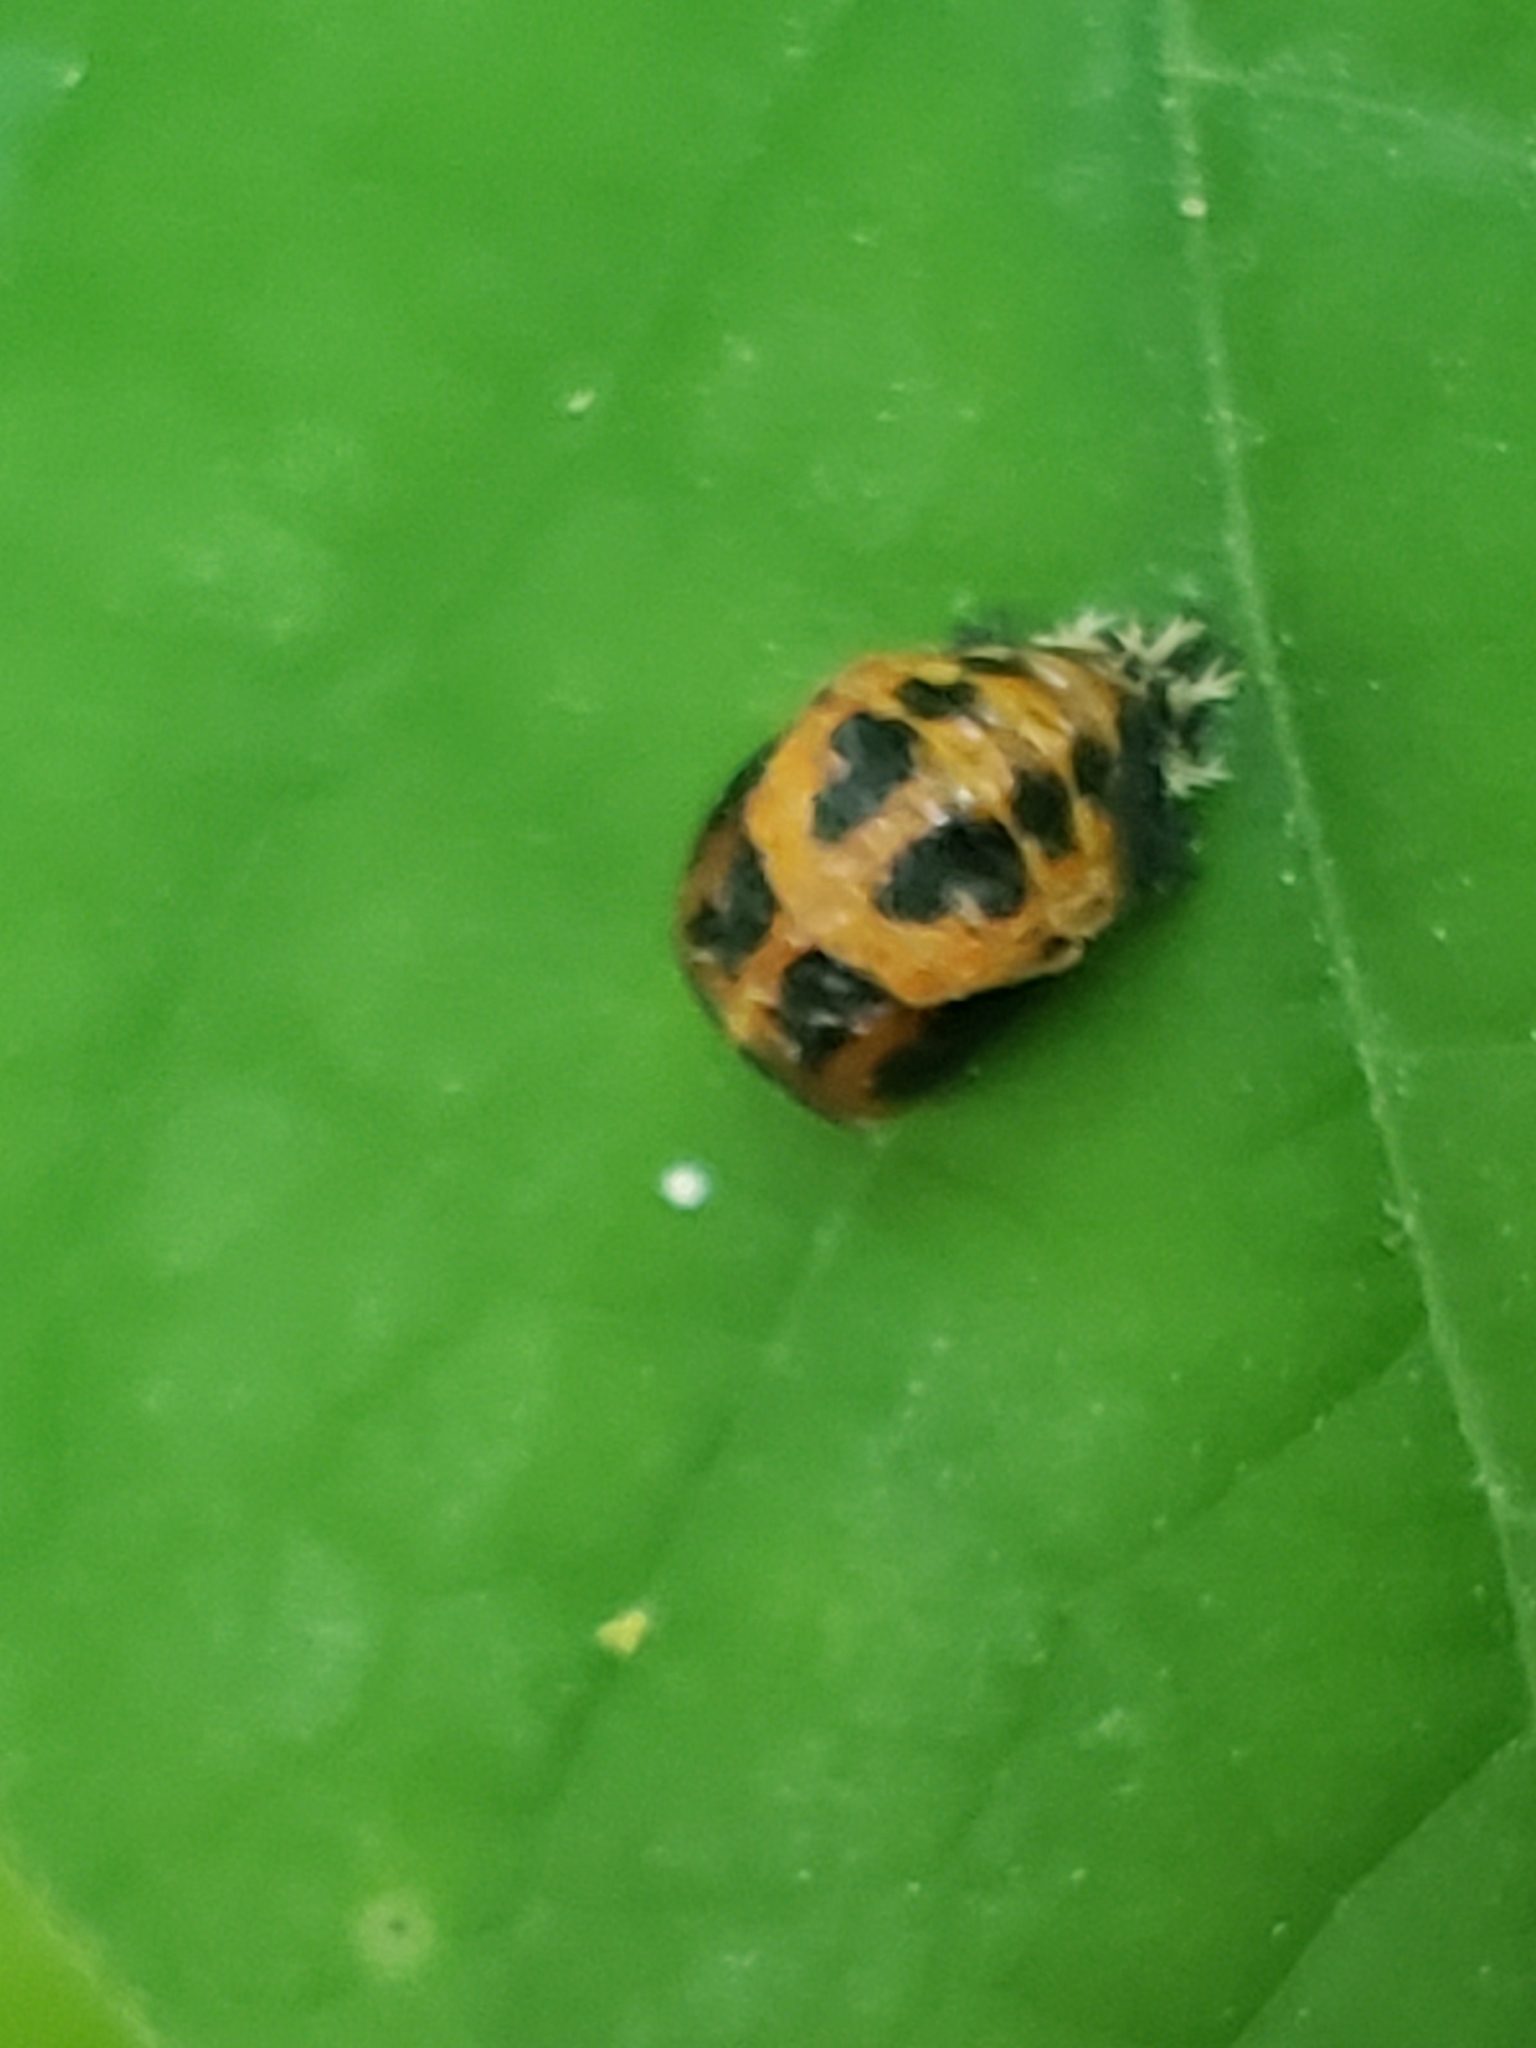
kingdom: Animalia
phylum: Arthropoda
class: Insecta
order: Coleoptera
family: Coccinellidae
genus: Harmonia
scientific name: Harmonia axyridis
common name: Harlequin ladybird
